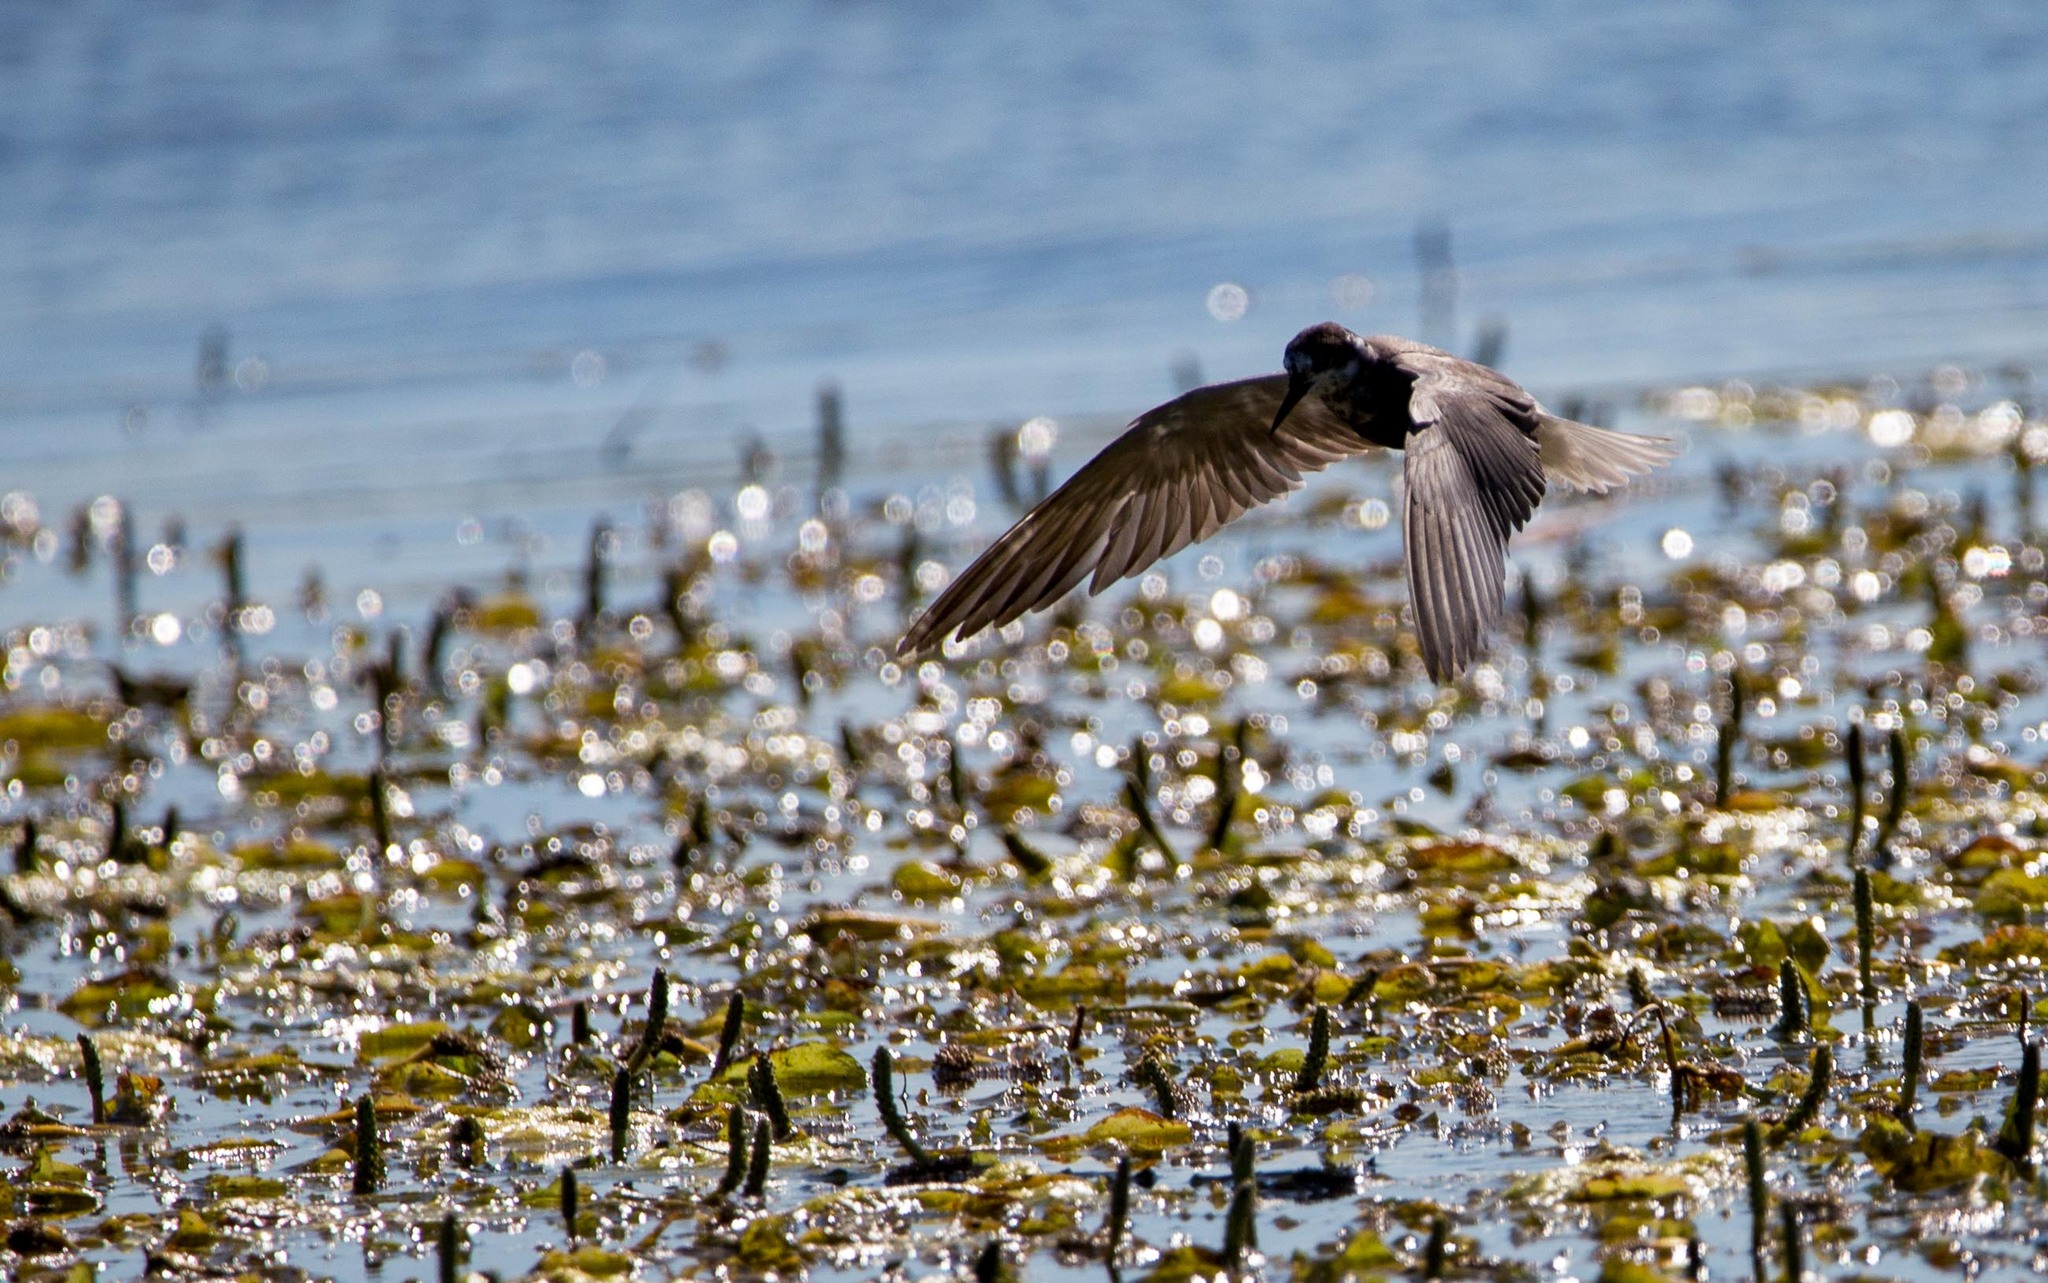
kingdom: Animalia
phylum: Chordata
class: Aves
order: Charadriiformes
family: Laridae
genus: Chlidonias
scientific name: Chlidonias niger
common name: Black tern
